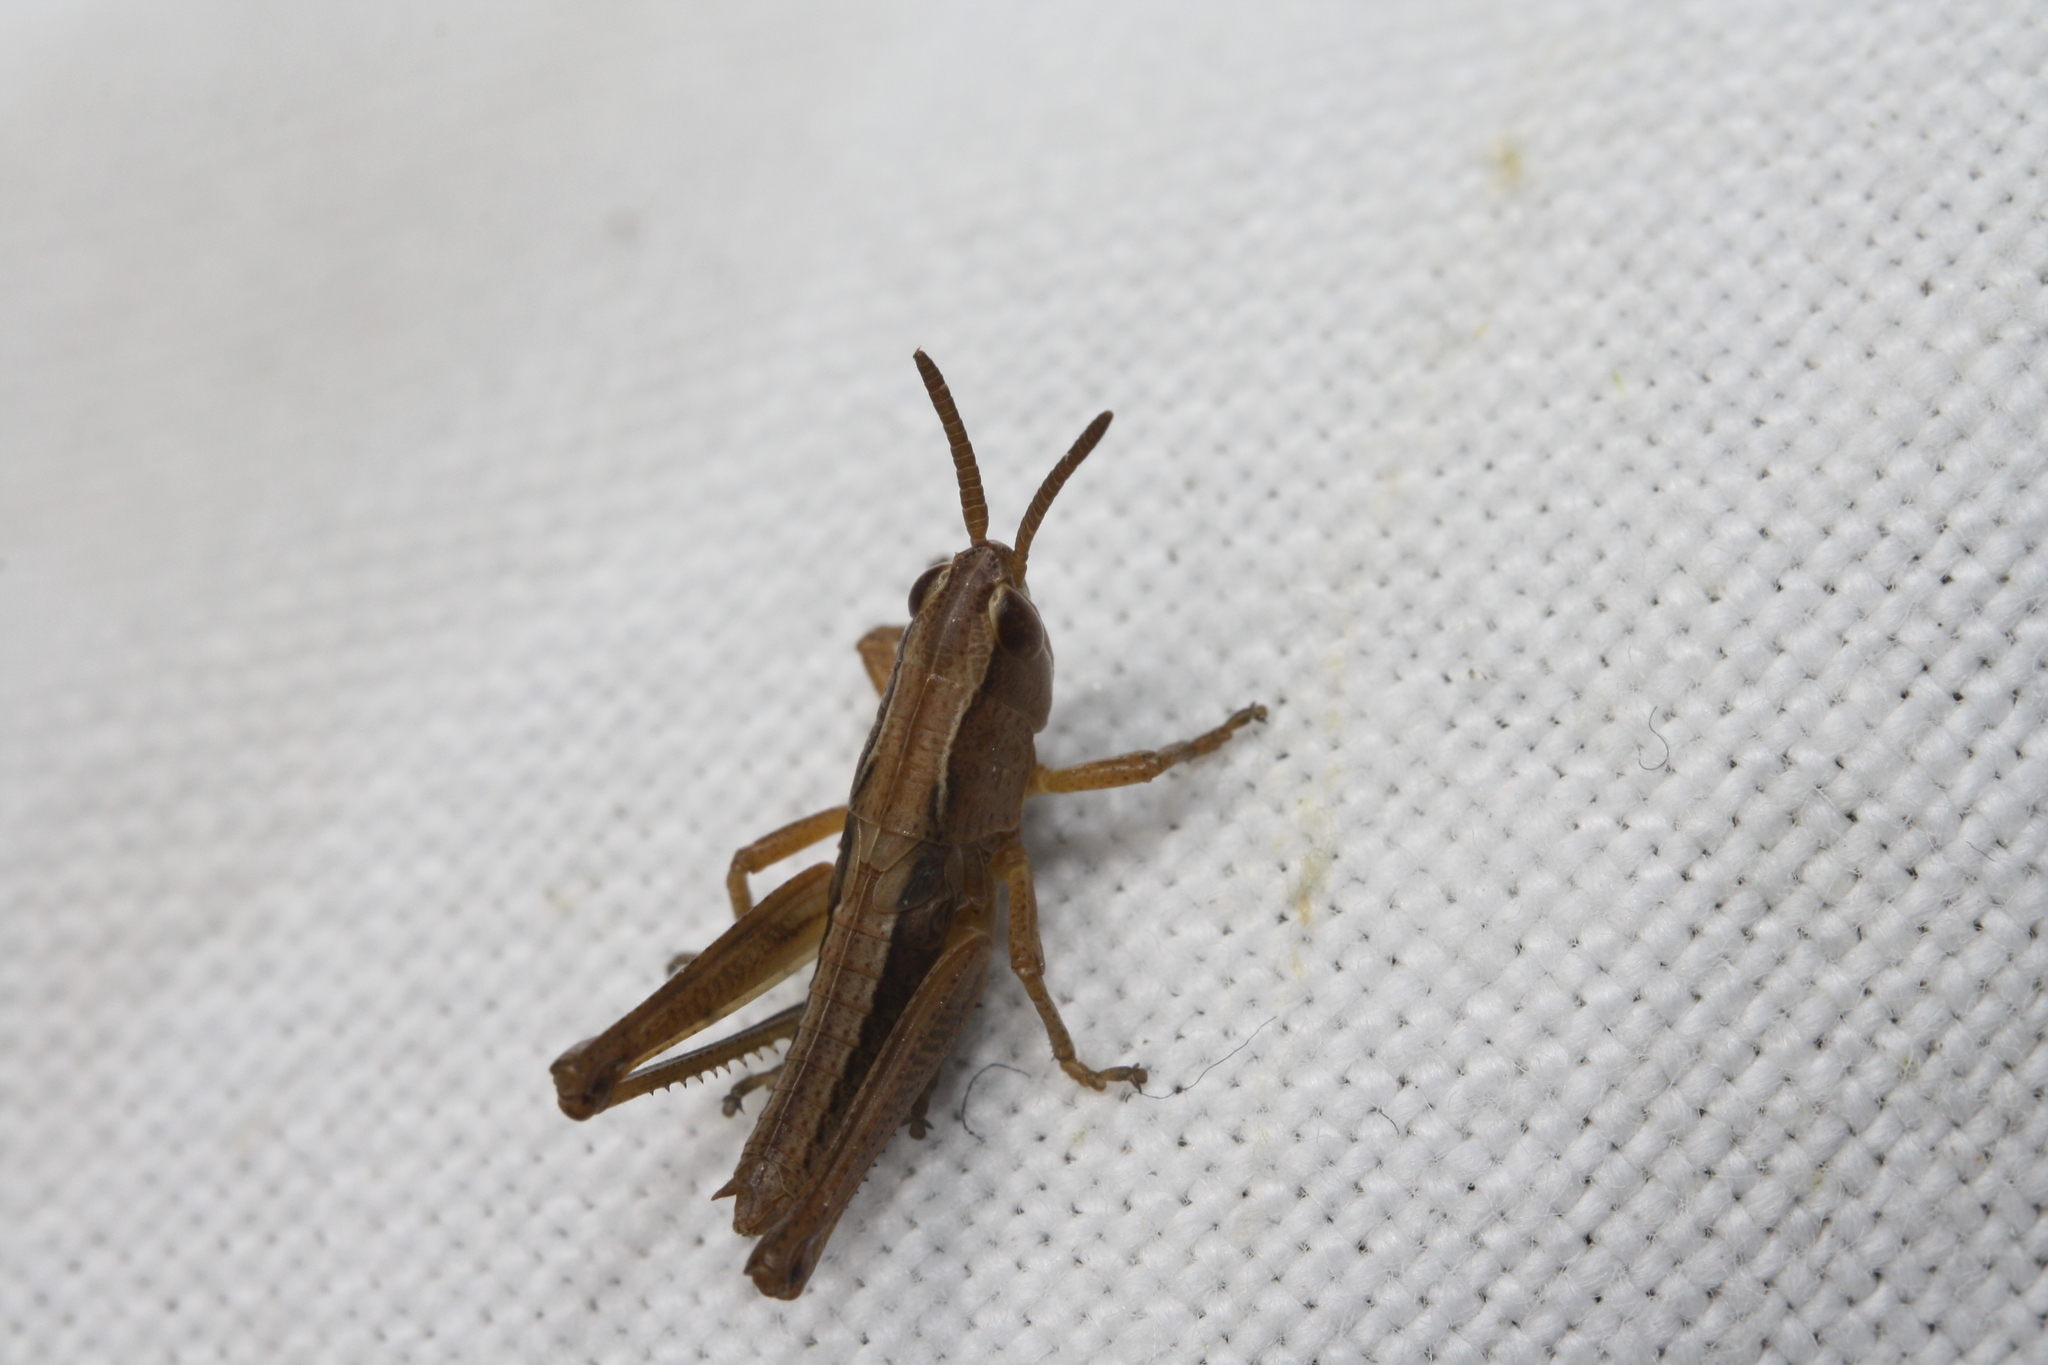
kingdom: Animalia
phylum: Arthropoda
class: Insecta
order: Orthoptera
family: Acrididae
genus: Pseudochorthippus
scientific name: Pseudochorthippus parallelus
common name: Meadow grasshopper
